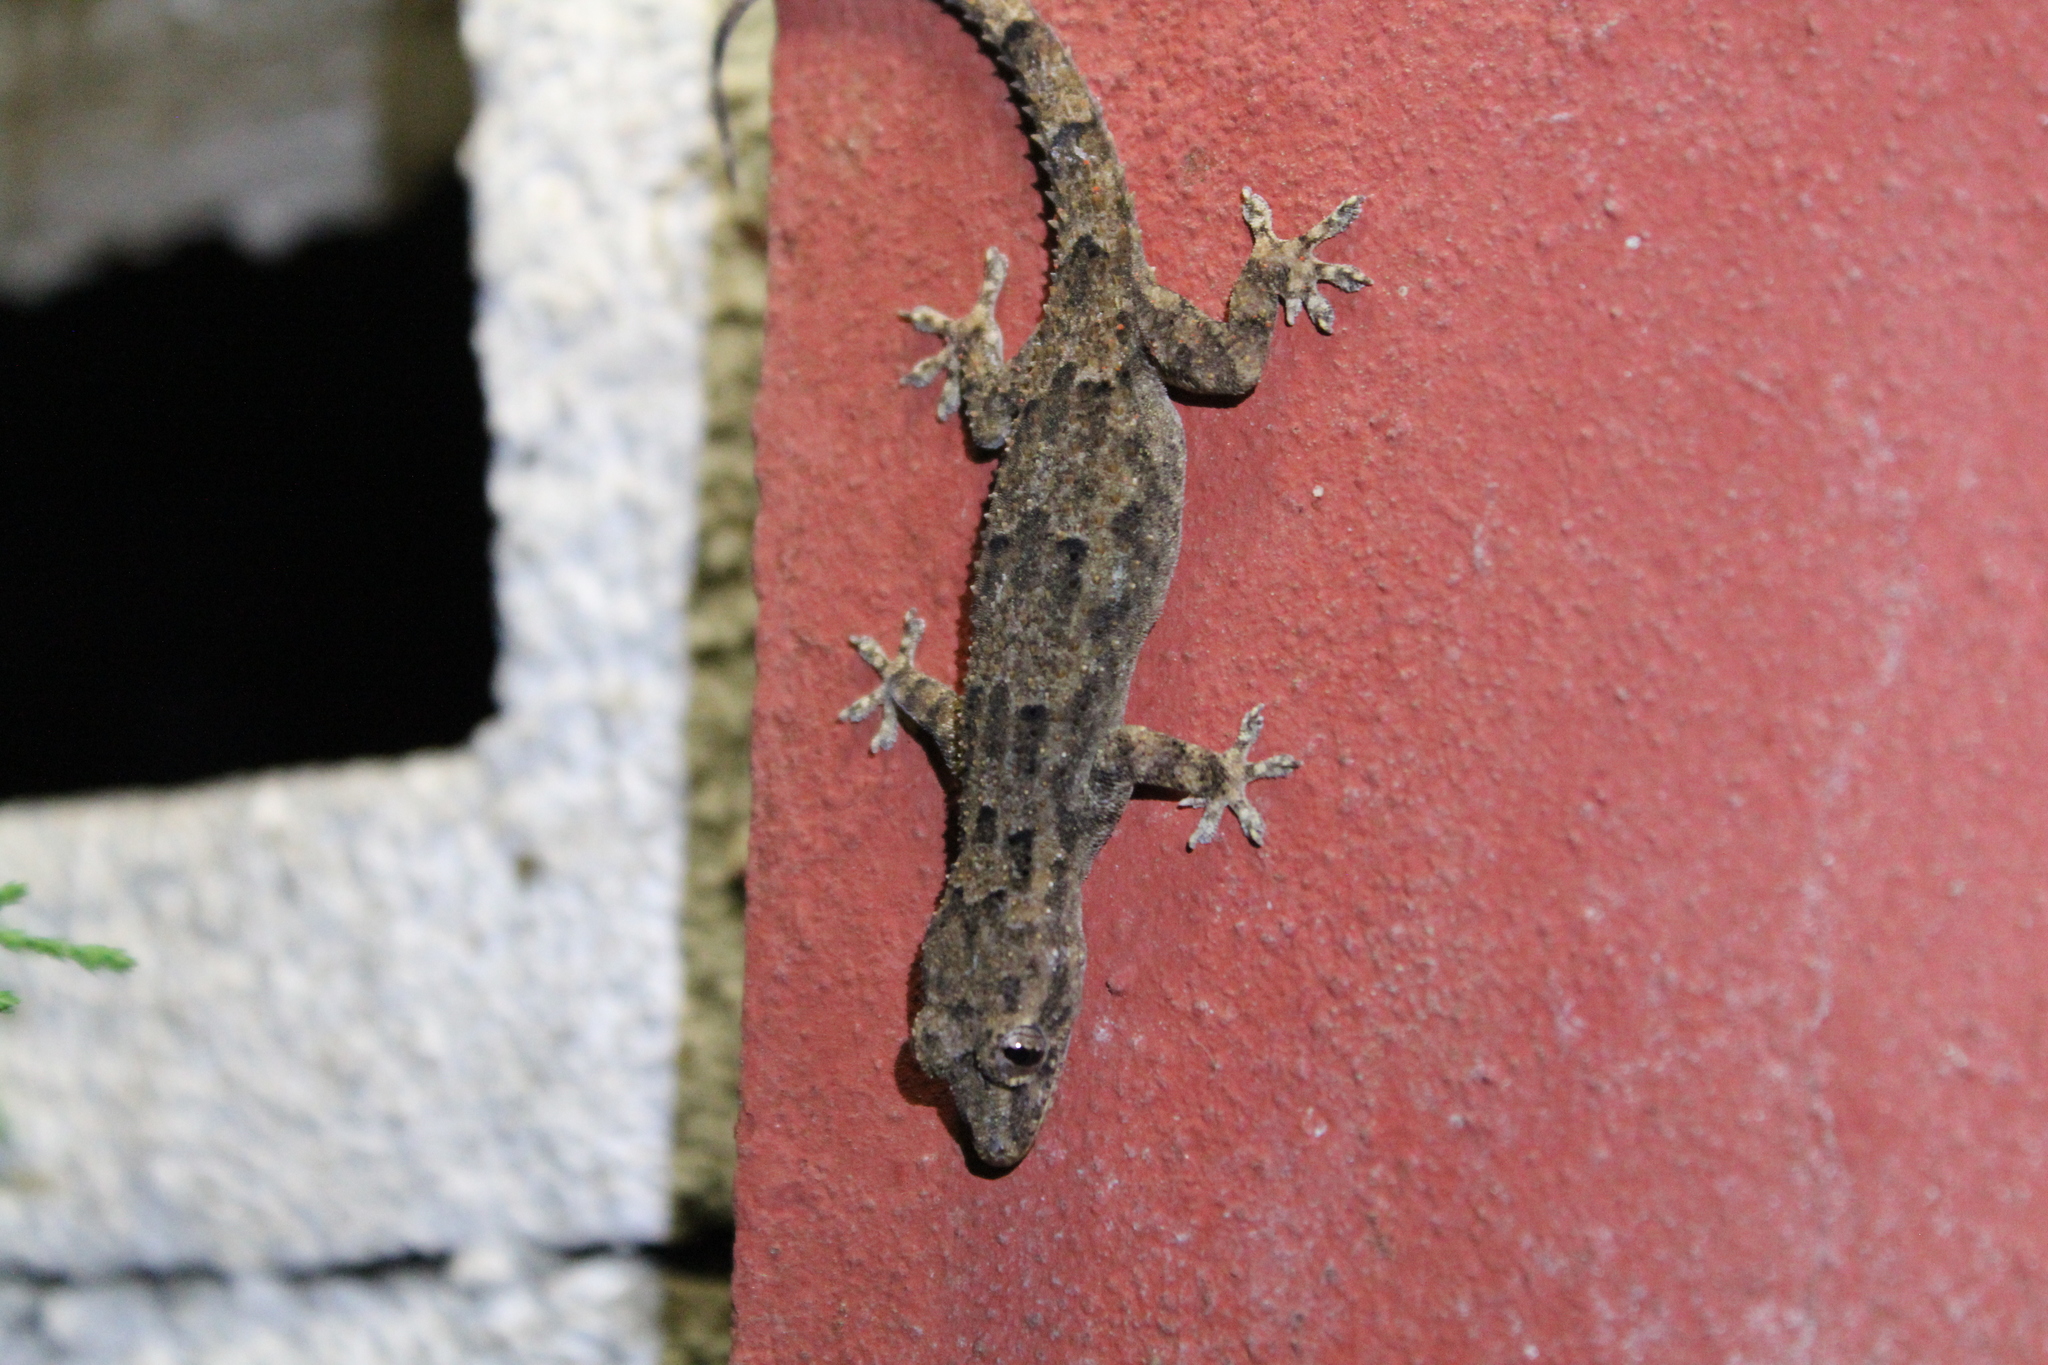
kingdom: Animalia
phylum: Chordata
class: Squamata
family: Gekkonidae
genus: Hemidactylus
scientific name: Hemidactylus mercatorius
